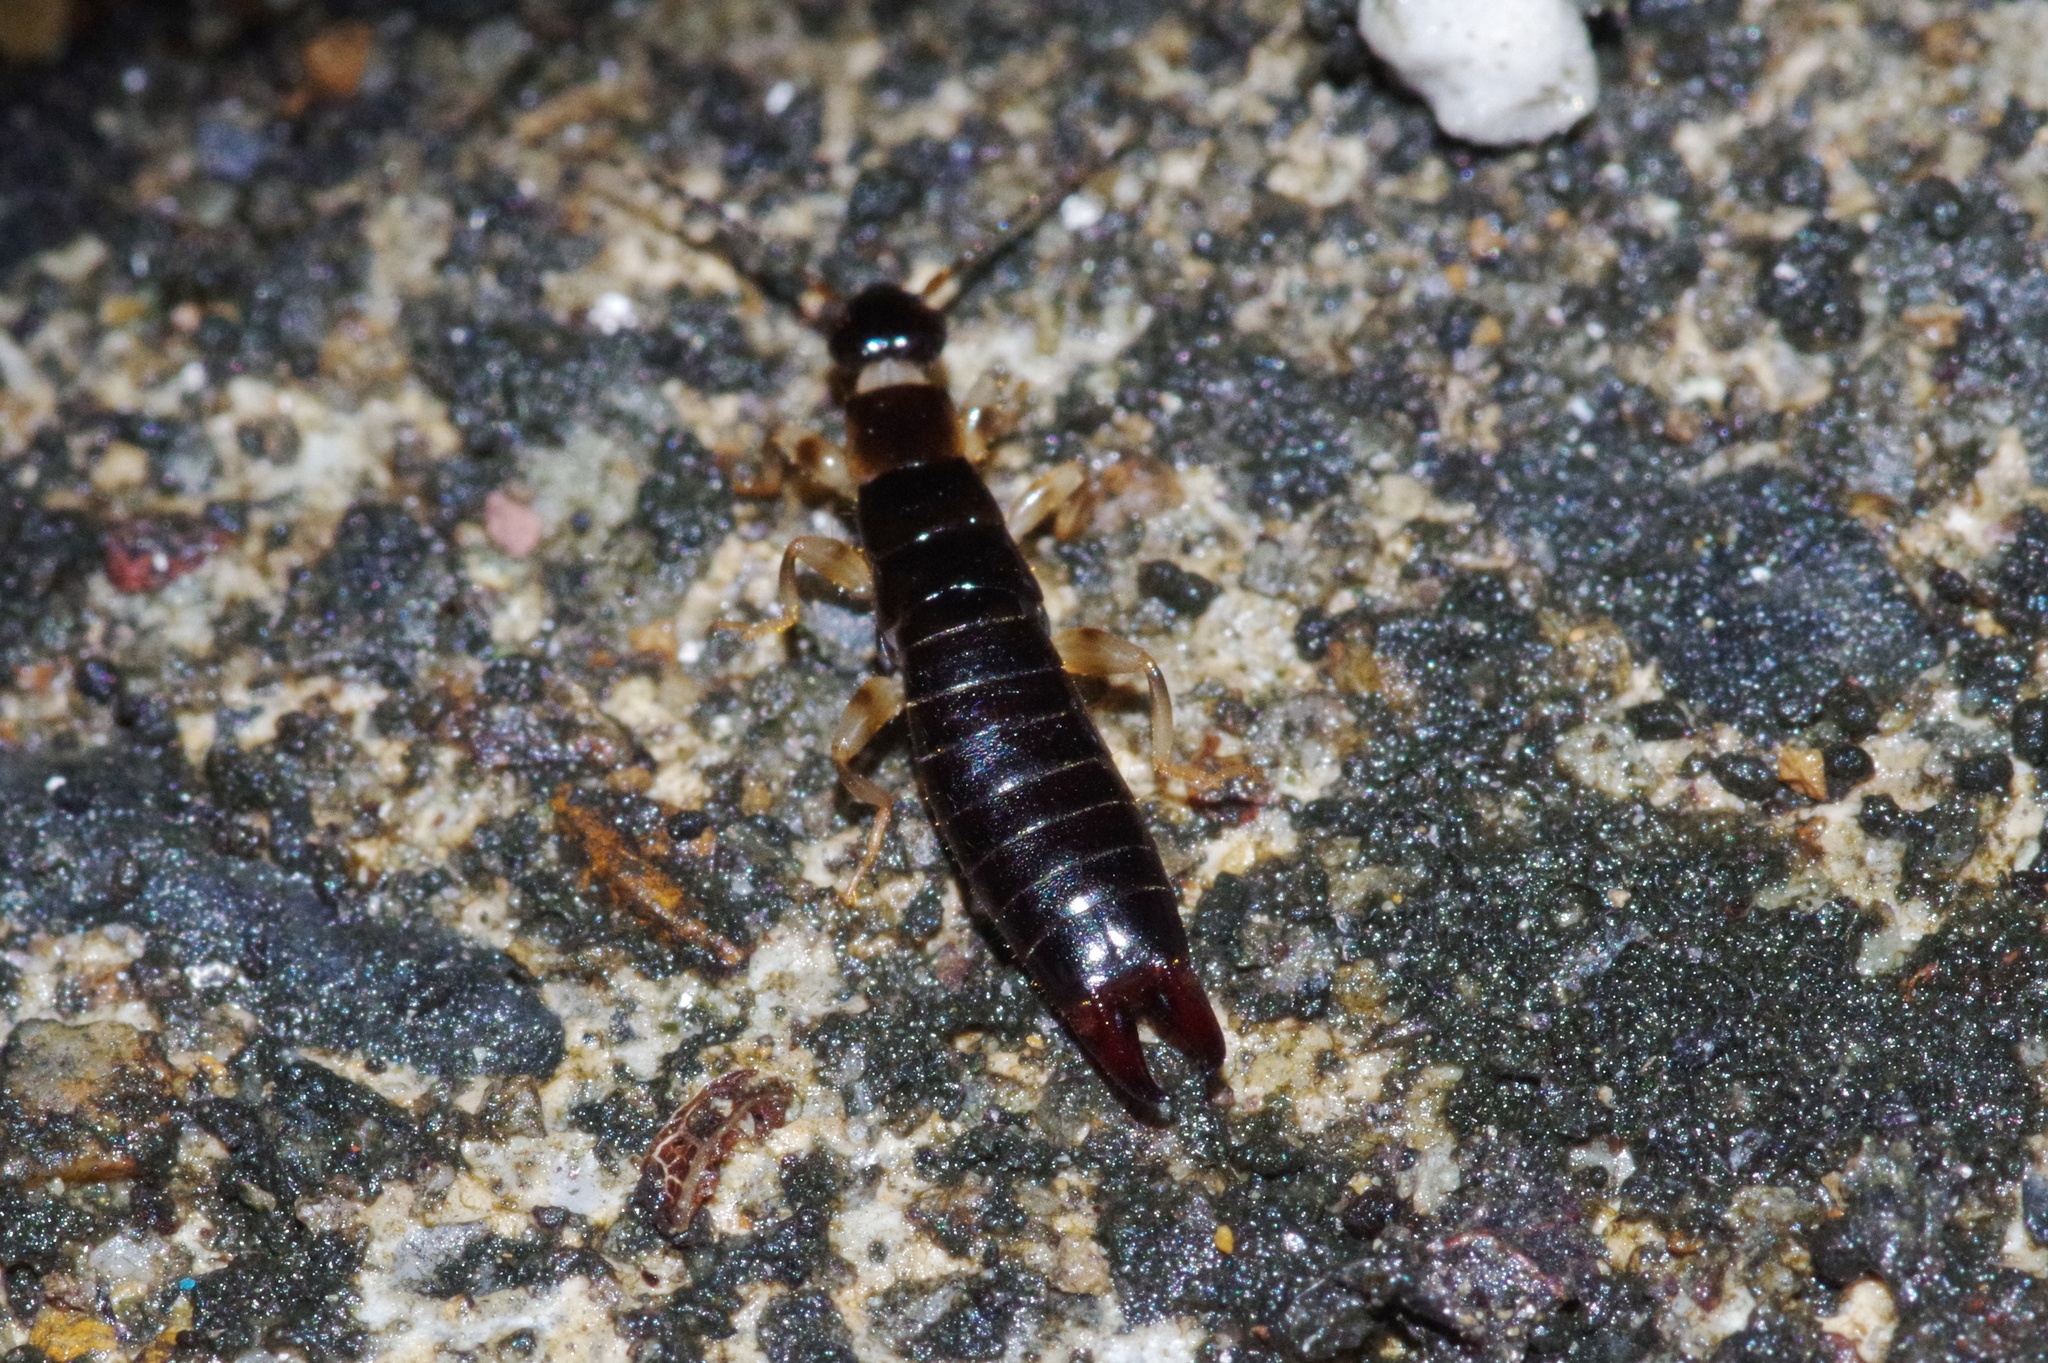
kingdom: Animalia
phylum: Arthropoda
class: Insecta
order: Dermaptera
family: Anisolabididae
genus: Anisolabella
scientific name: Anisolabella marginalis
